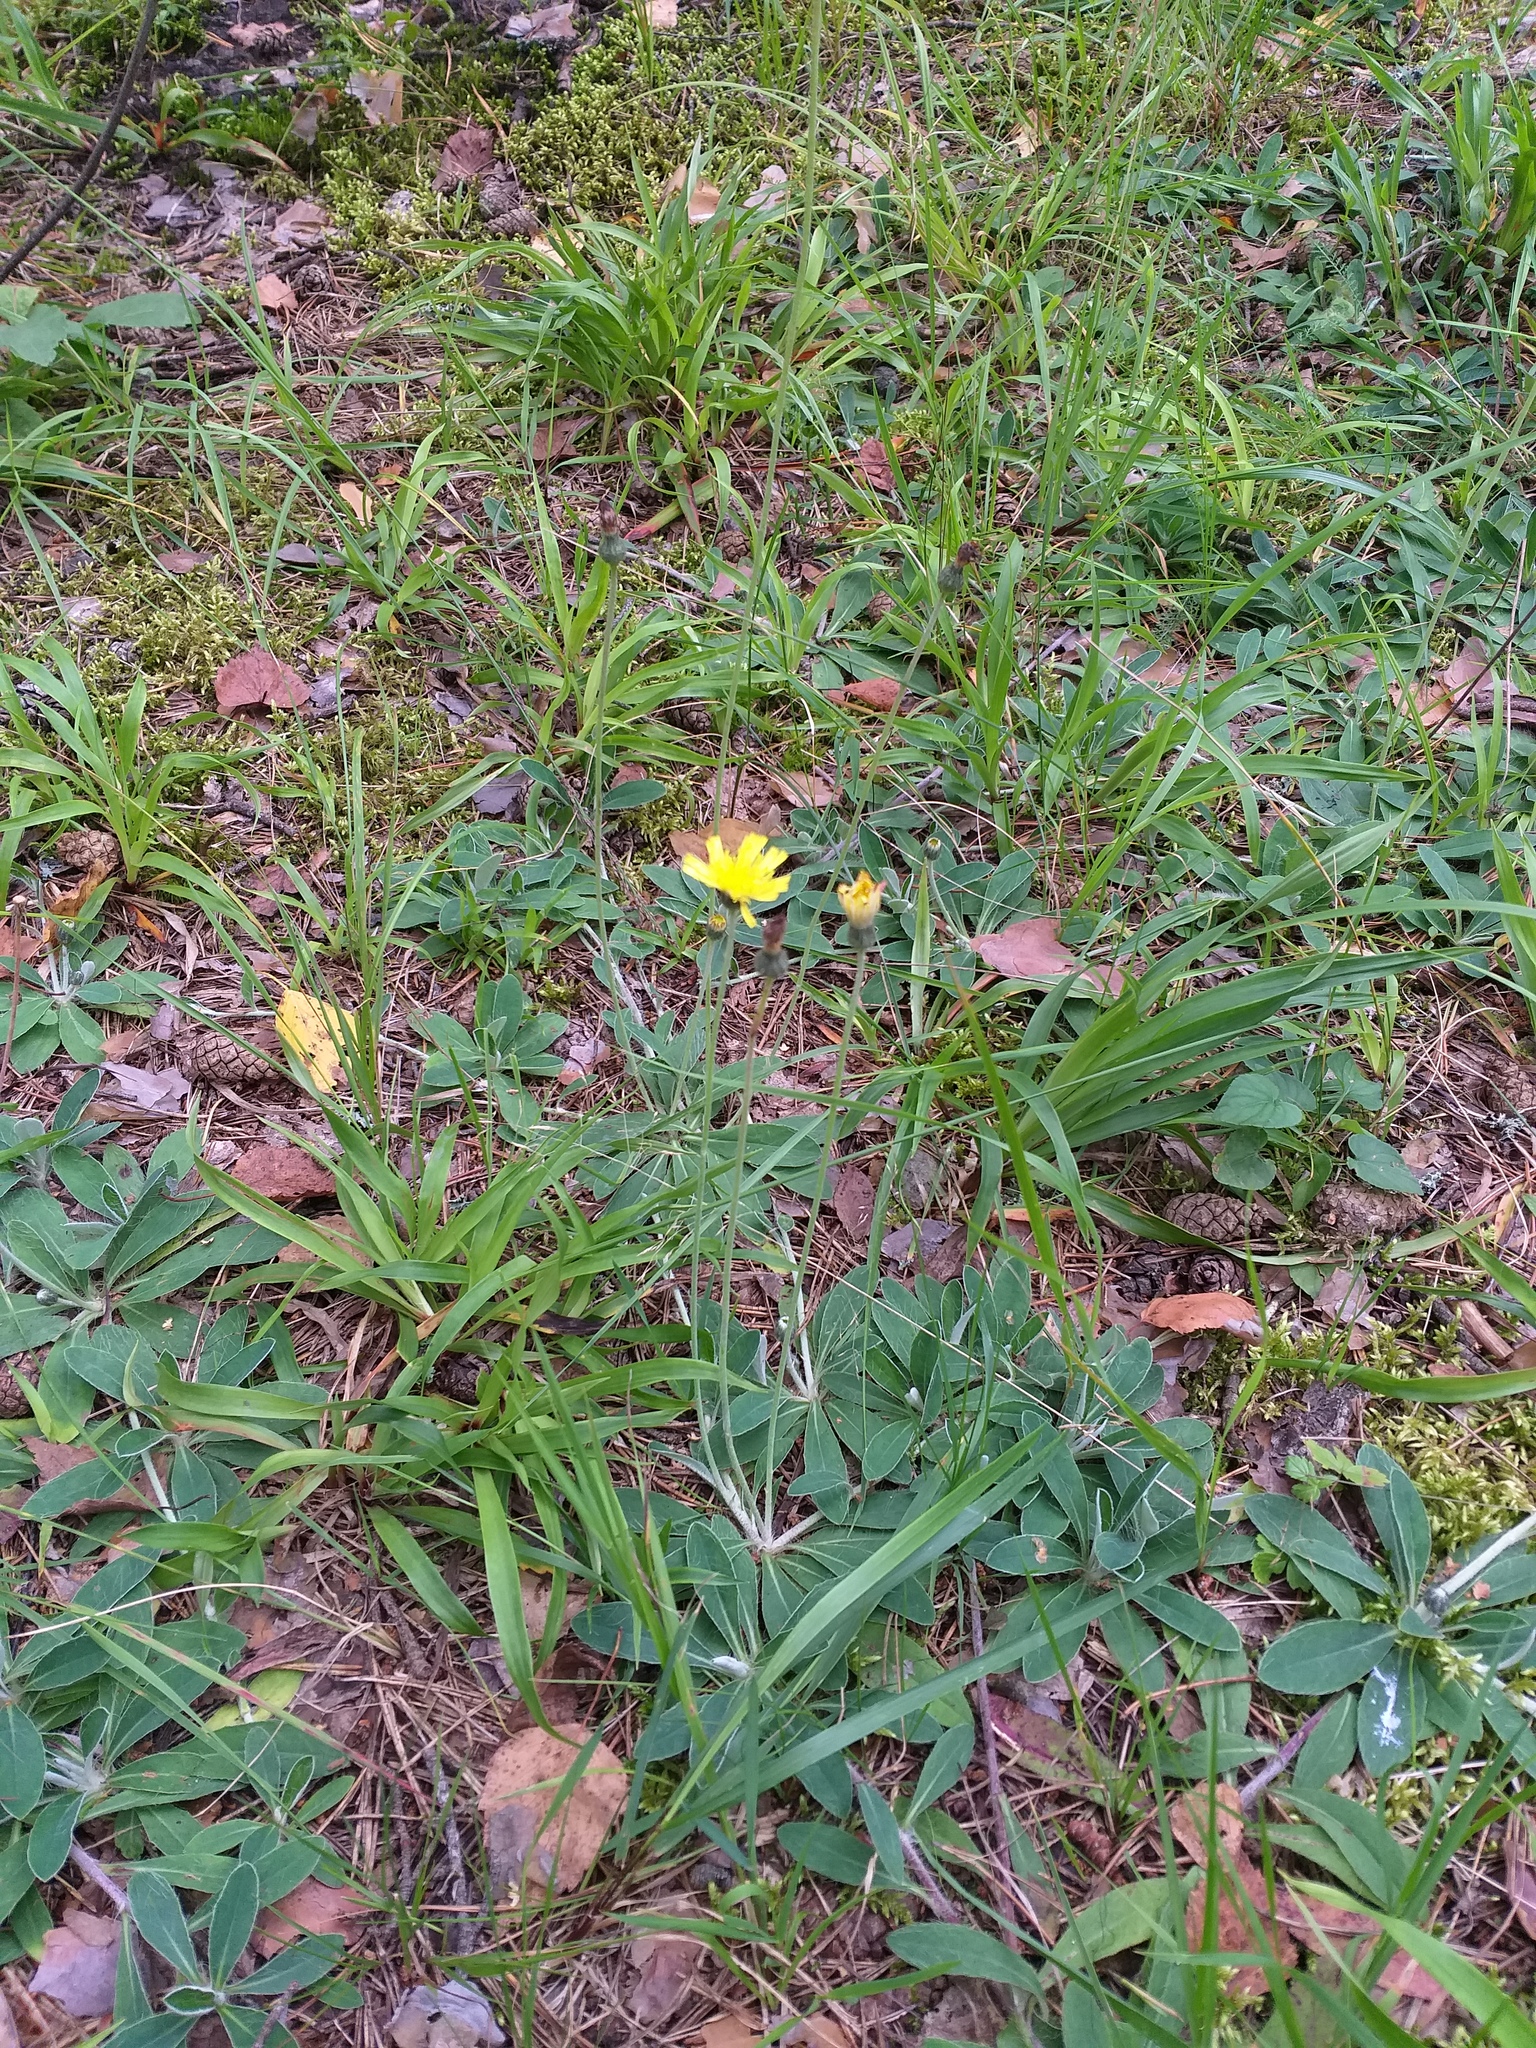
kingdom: Plantae
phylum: Tracheophyta
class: Magnoliopsida
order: Asterales
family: Asteraceae
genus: Pilosella
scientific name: Pilosella officinarum
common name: Mouse-ear hawkweed
